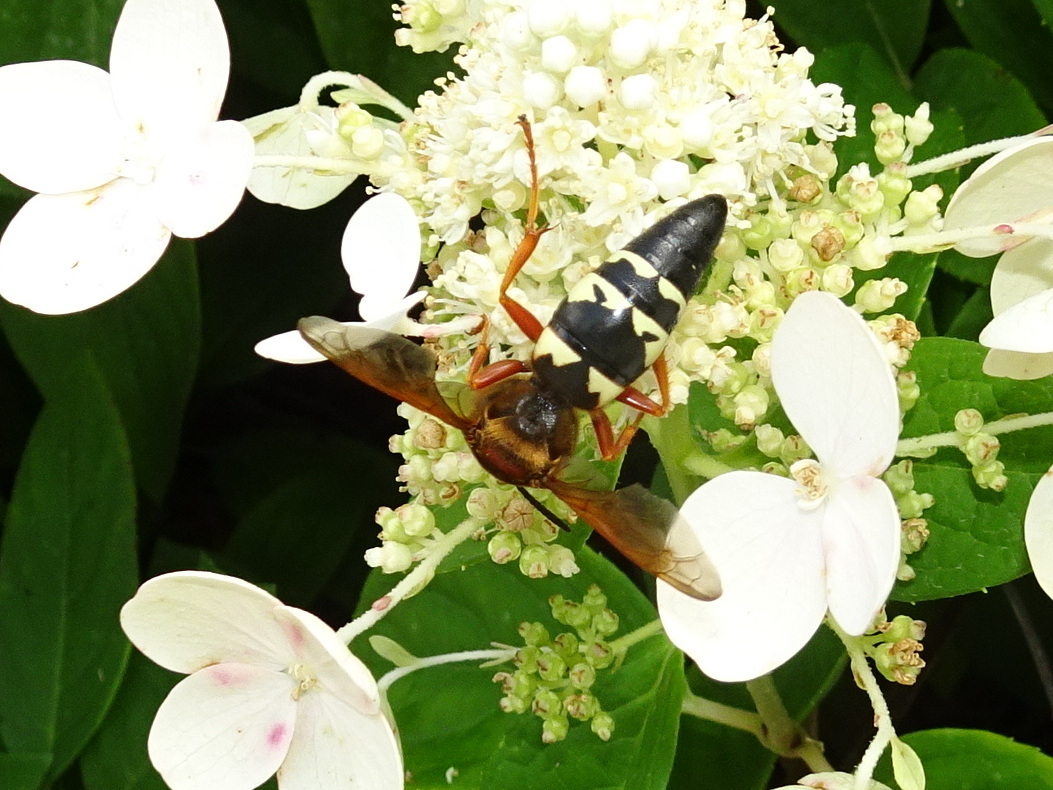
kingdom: Animalia
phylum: Arthropoda
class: Insecta
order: Hymenoptera
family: Crabronidae
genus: Sphecius
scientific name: Sphecius speciosus
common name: Cicada killer
